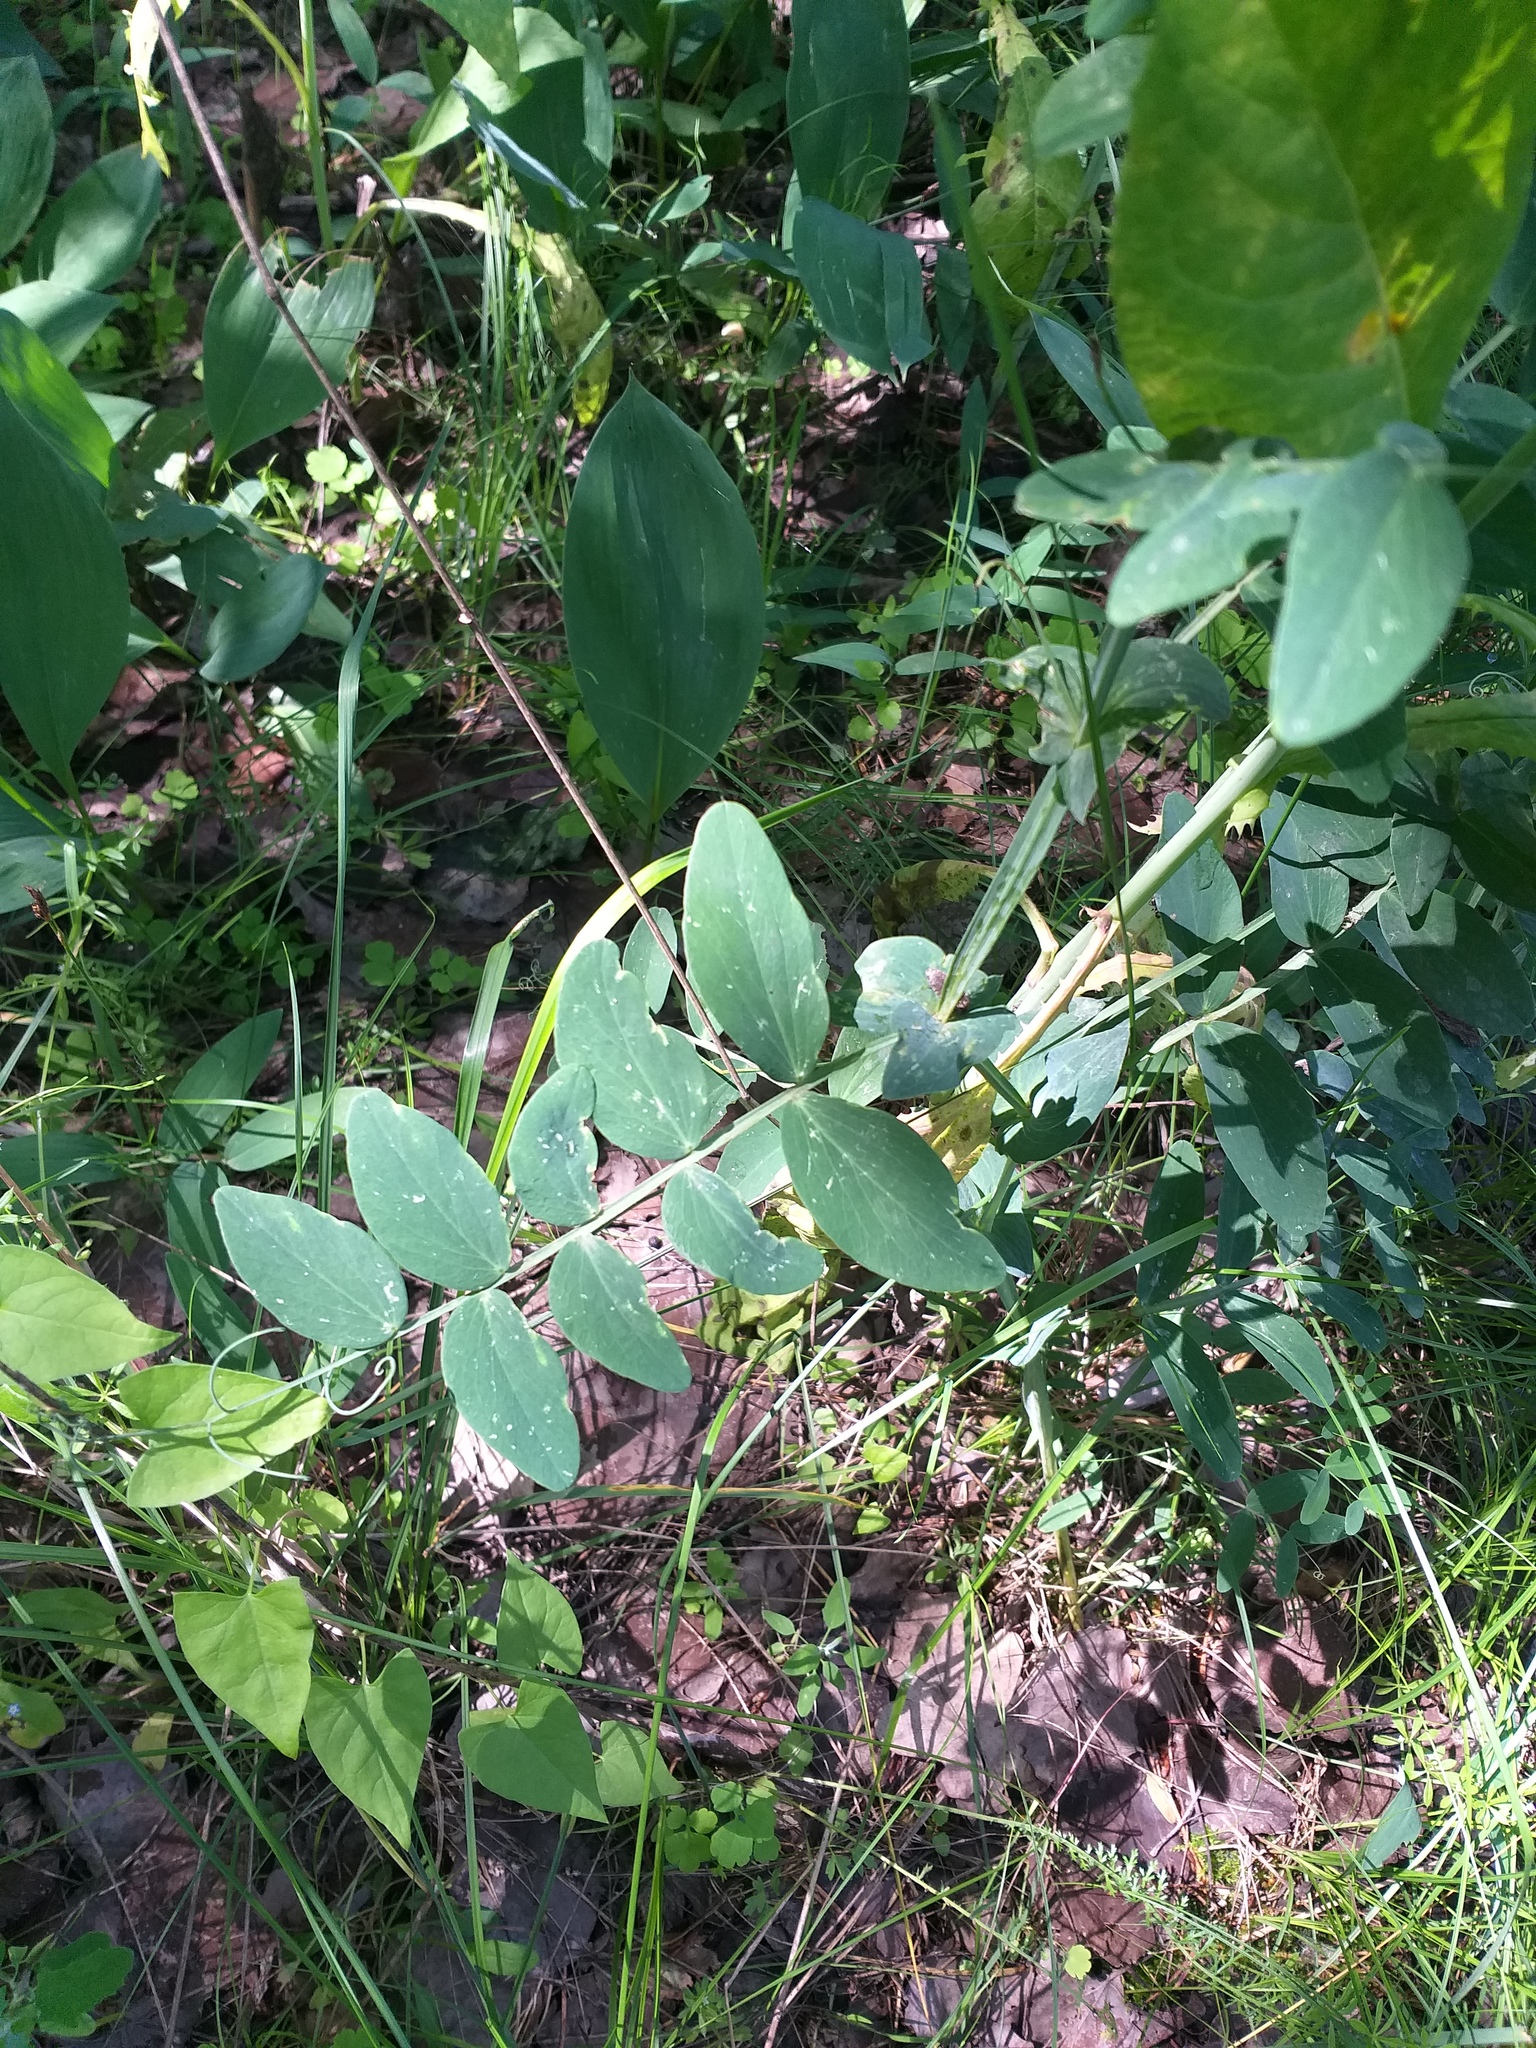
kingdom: Plantae
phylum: Tracheophyta
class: Magnoliopsida
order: Fabales
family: Fabaceae
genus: Lathyrus
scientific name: Lathyrus pisiformis
